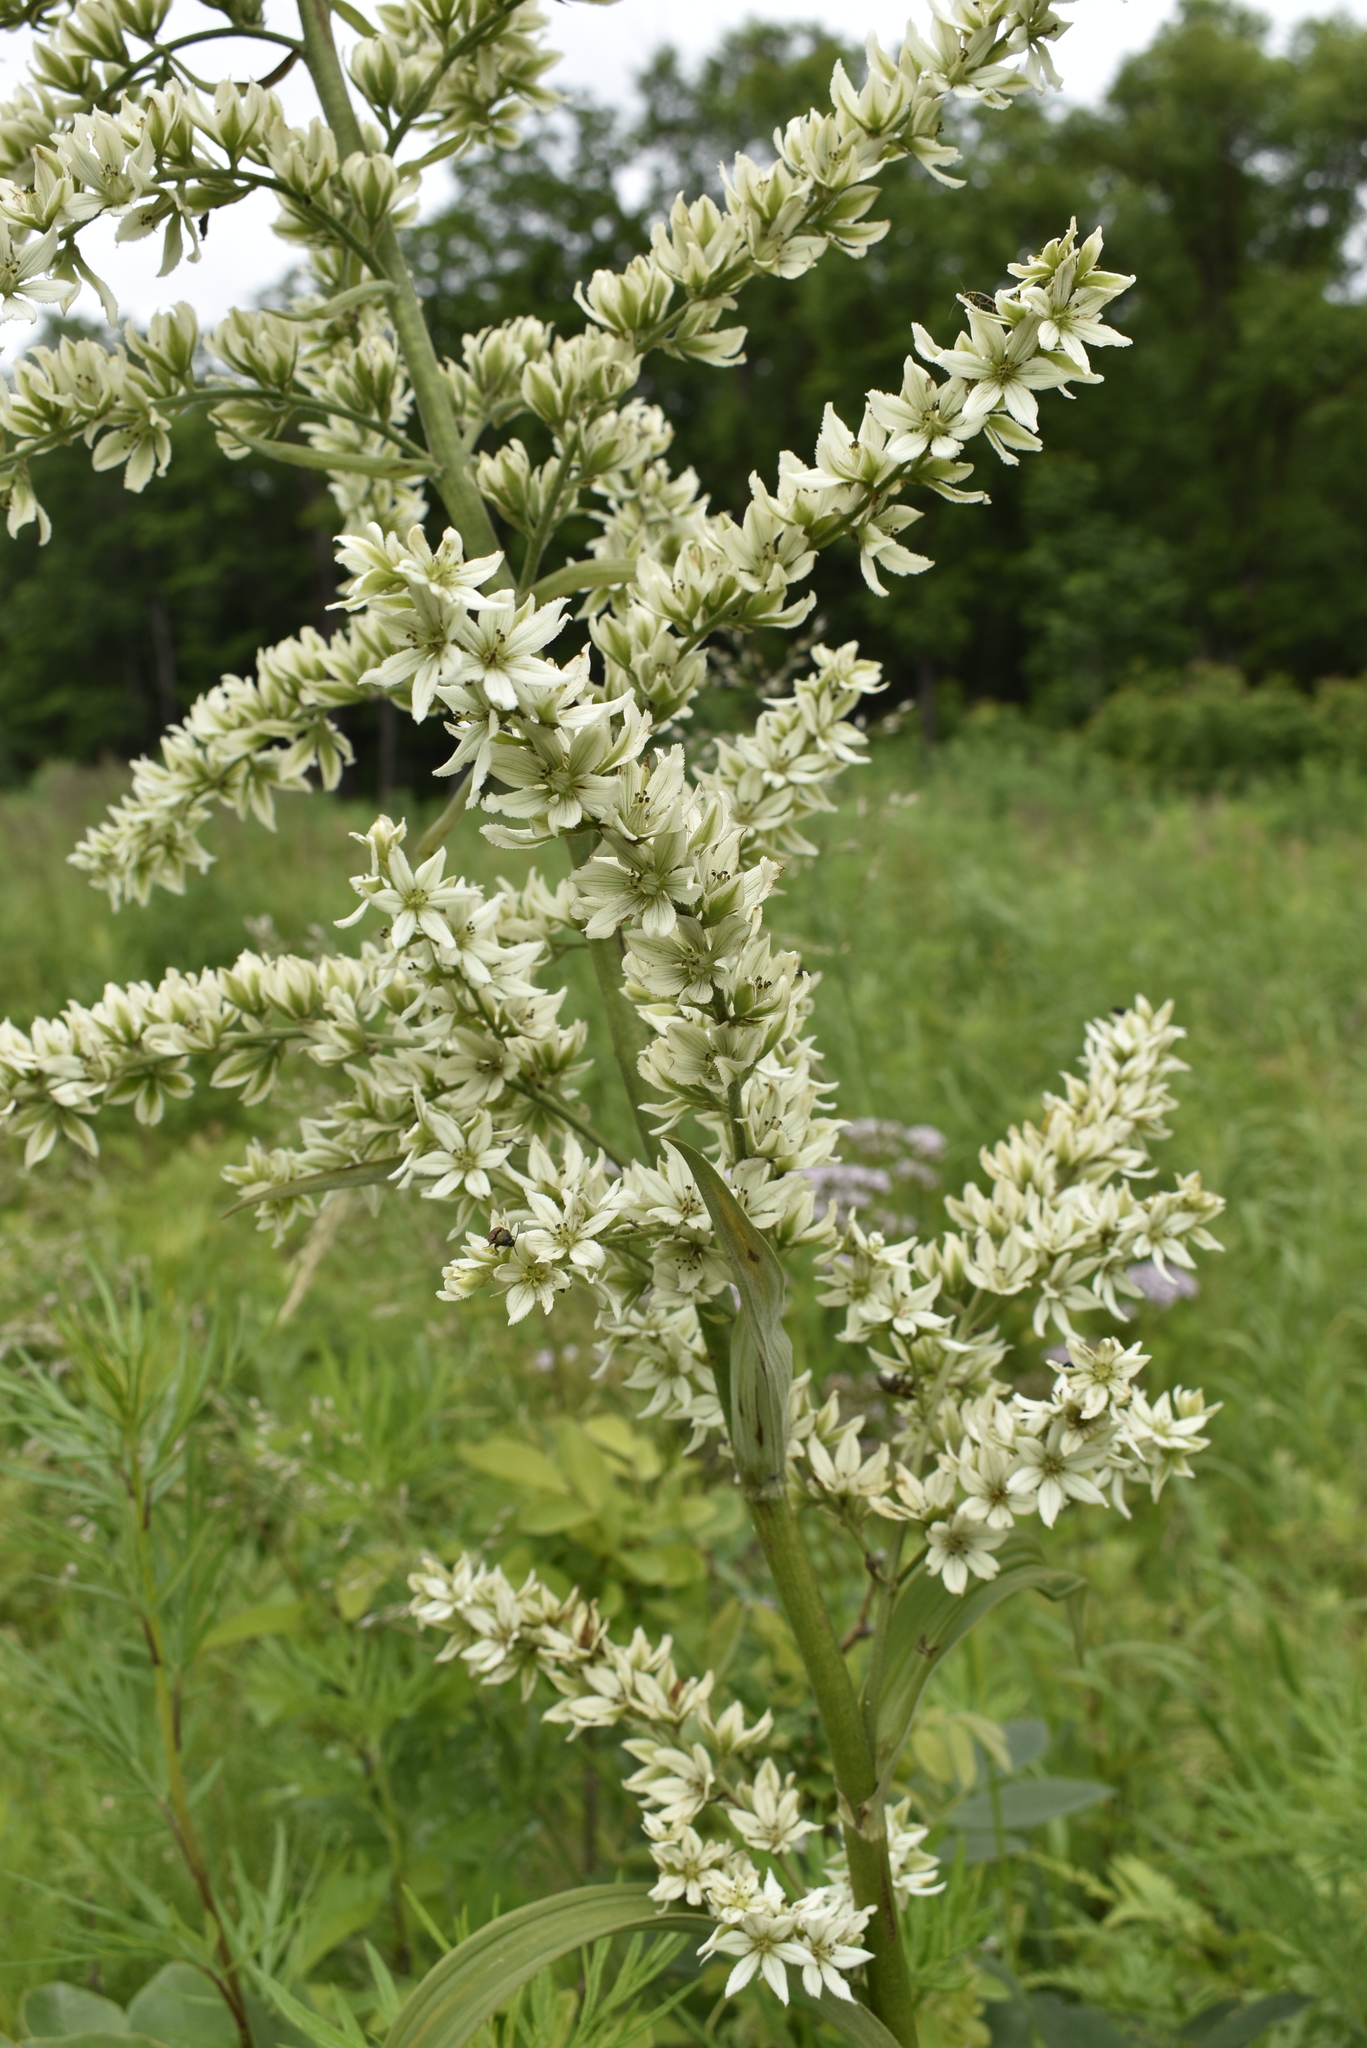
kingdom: Plantae
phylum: Tracheophyta
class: Liliopsida
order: Liliales
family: Melanthiaceae
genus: Veratrum
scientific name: Veratrum dahuricum
